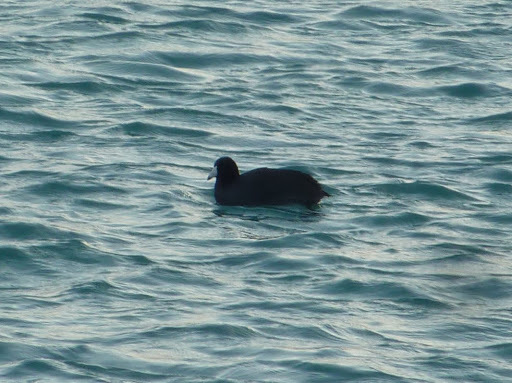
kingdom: Animalia
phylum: Chordata
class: Aves
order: Gruiformes
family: Rallidae
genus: Fulica
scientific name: Fulica americana
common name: American coot
